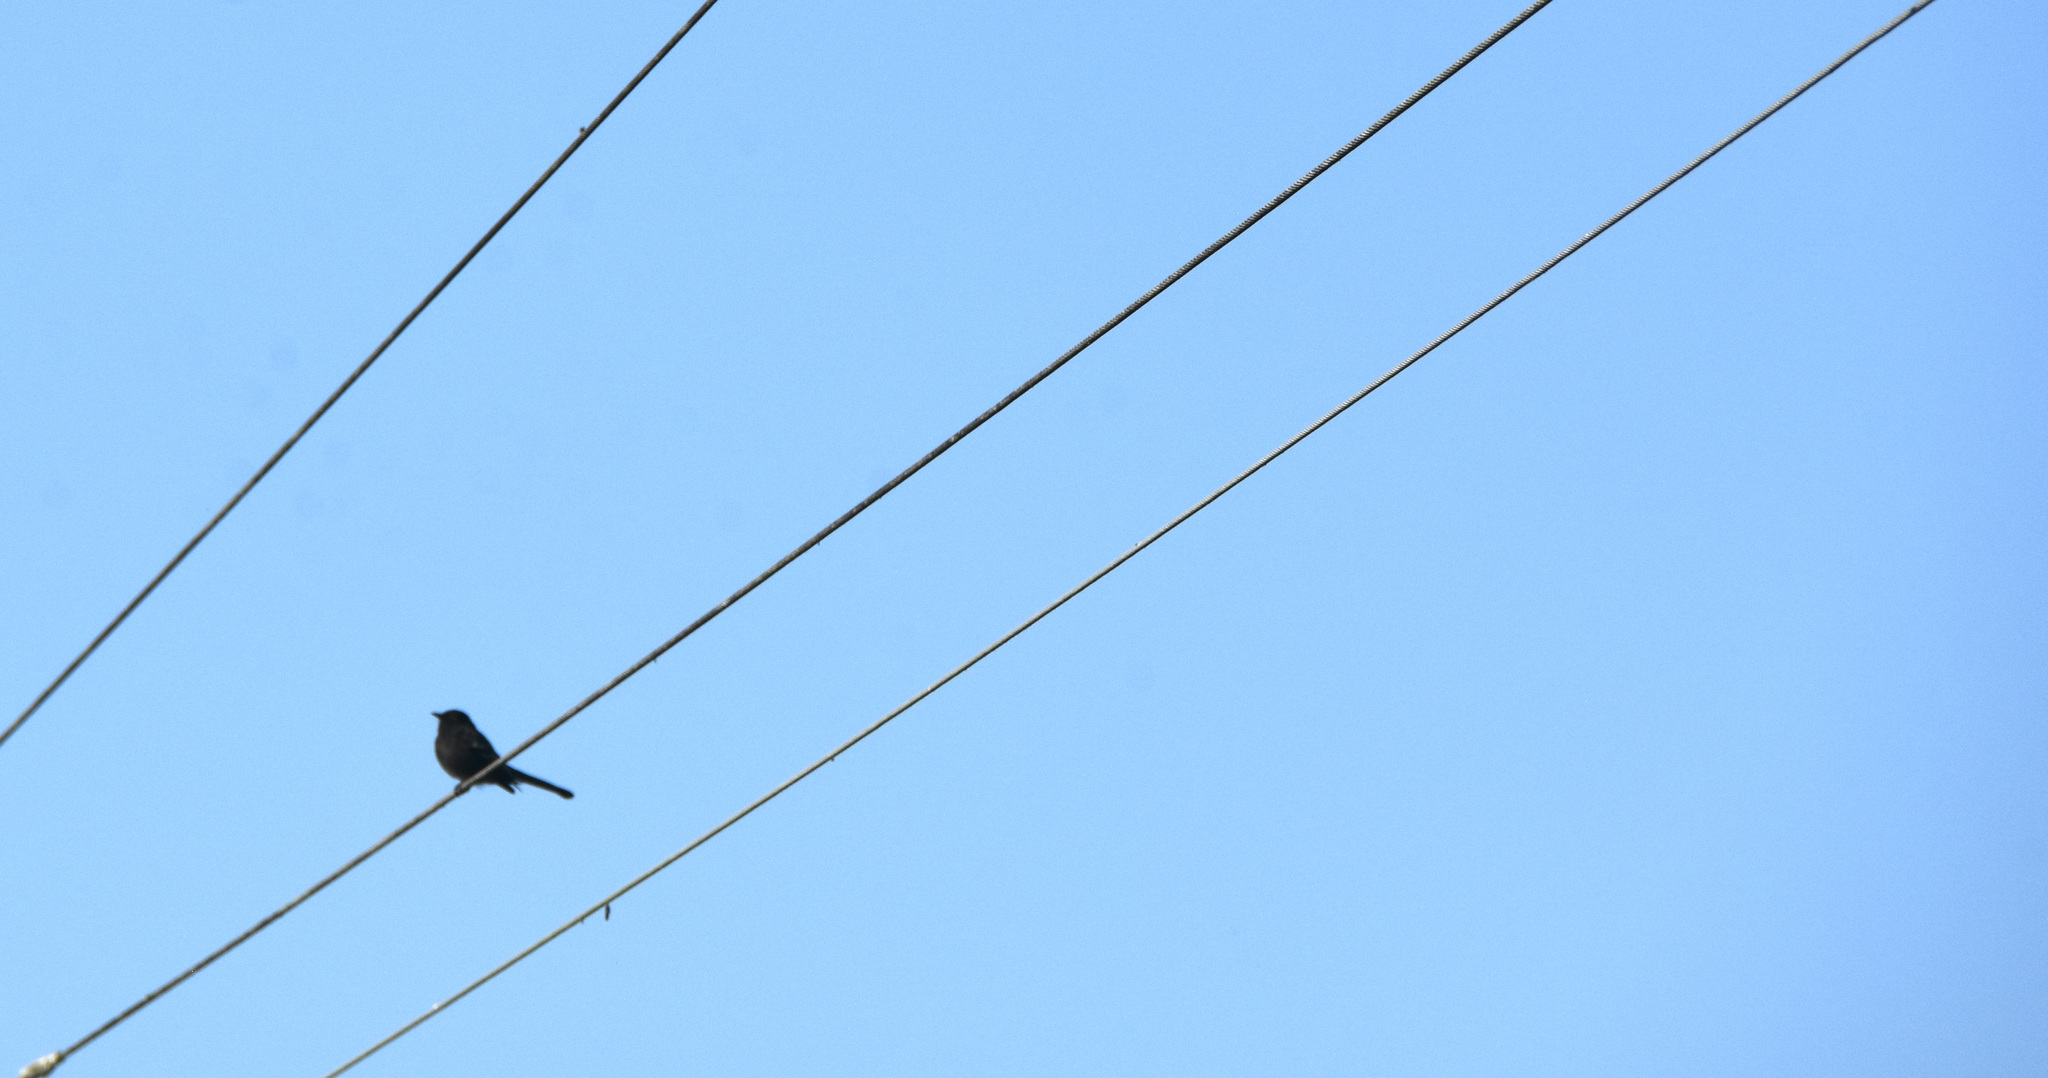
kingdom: Animalia
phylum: Chordata
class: Aves
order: Passeriformes
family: Tyrannidae
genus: Sayornis
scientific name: Sayornis nigricans
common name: Black phoebe
